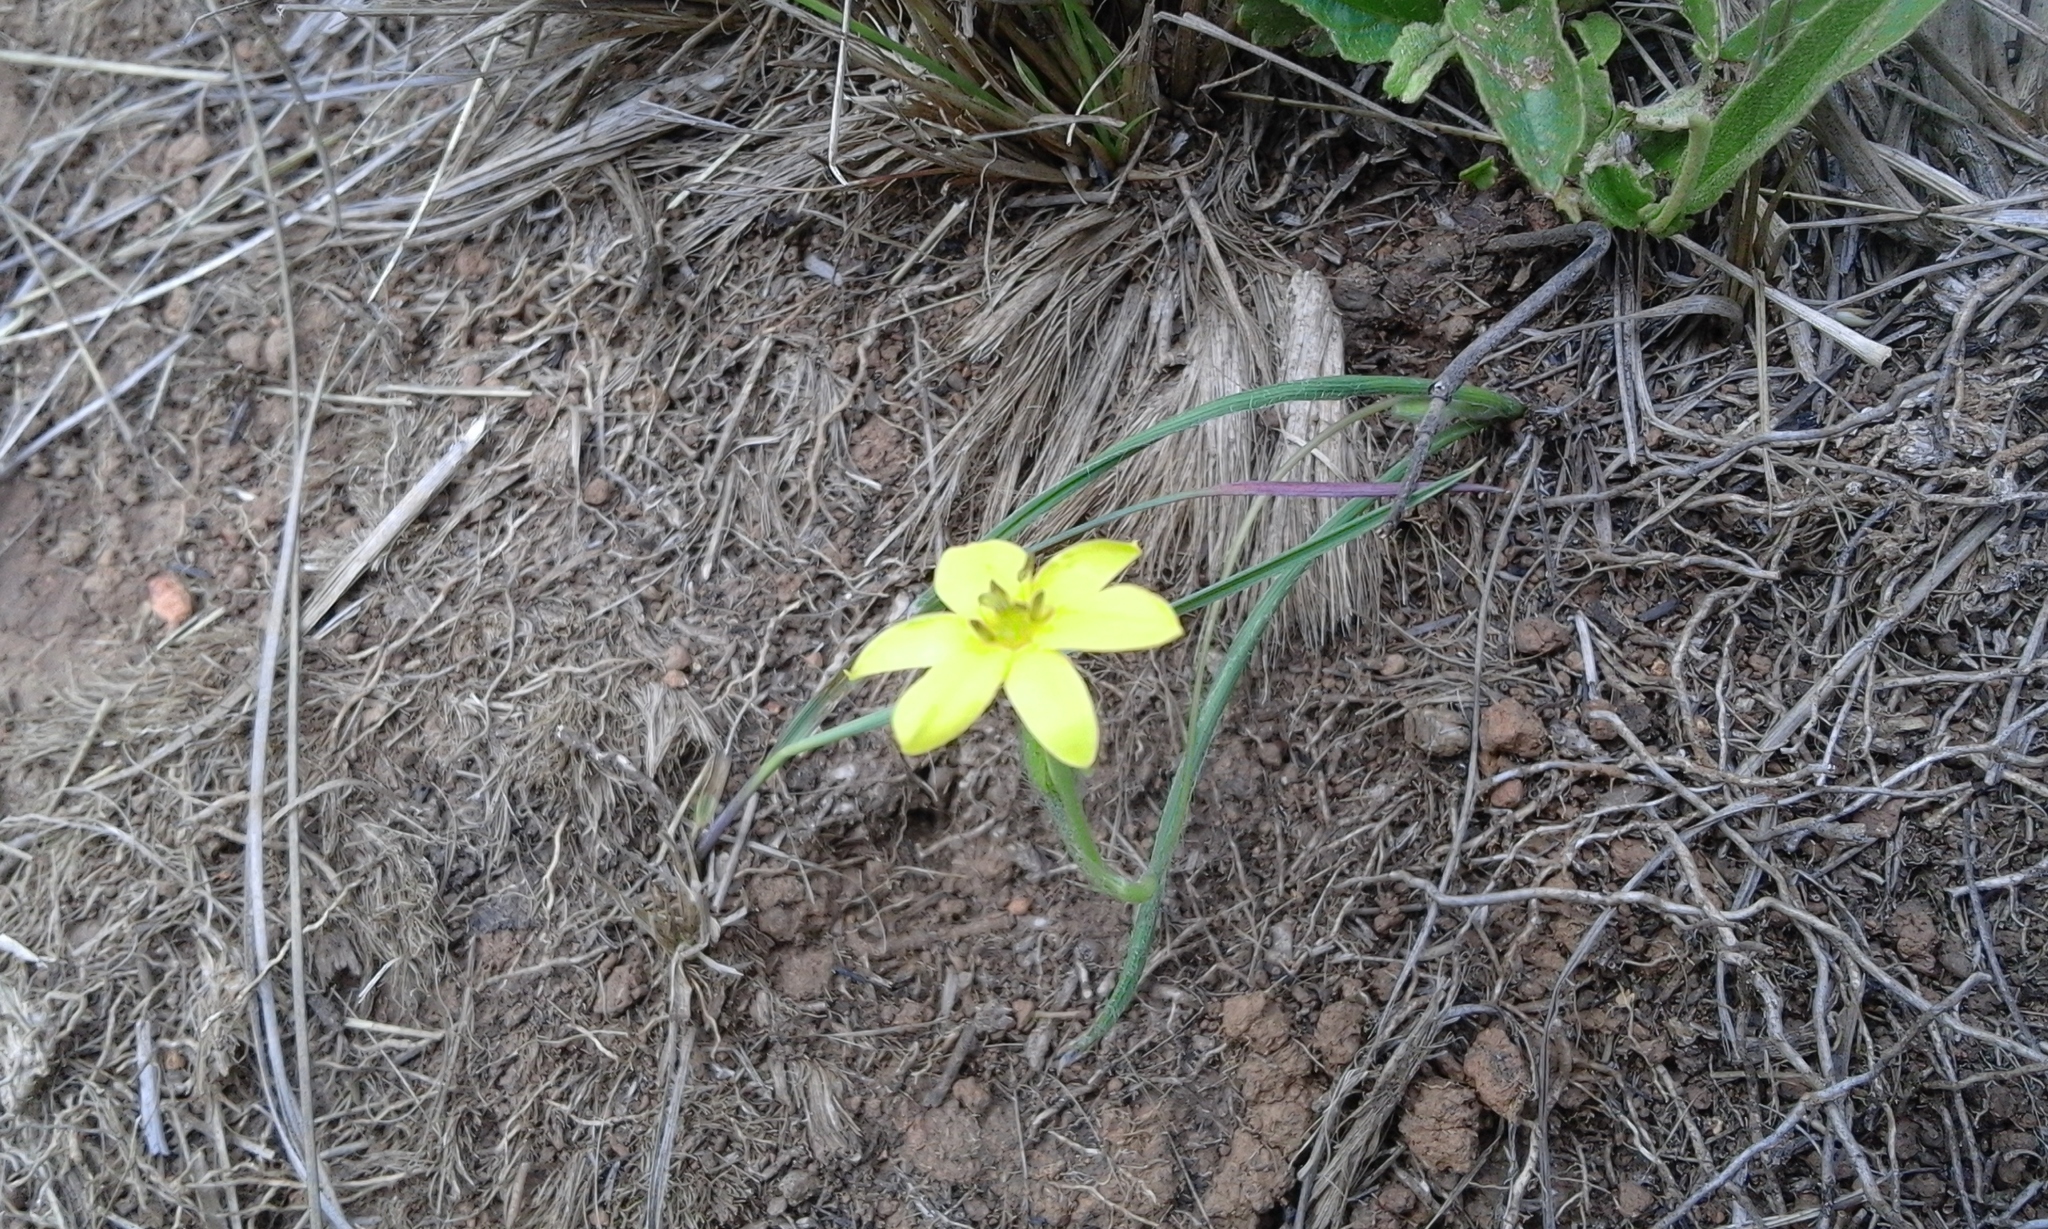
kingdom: Plantae
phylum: Tracheophyta
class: Liliopsida
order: Asparagales
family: Hypoxidaceae
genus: Hypoxis
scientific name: Hypoxis filiformis
